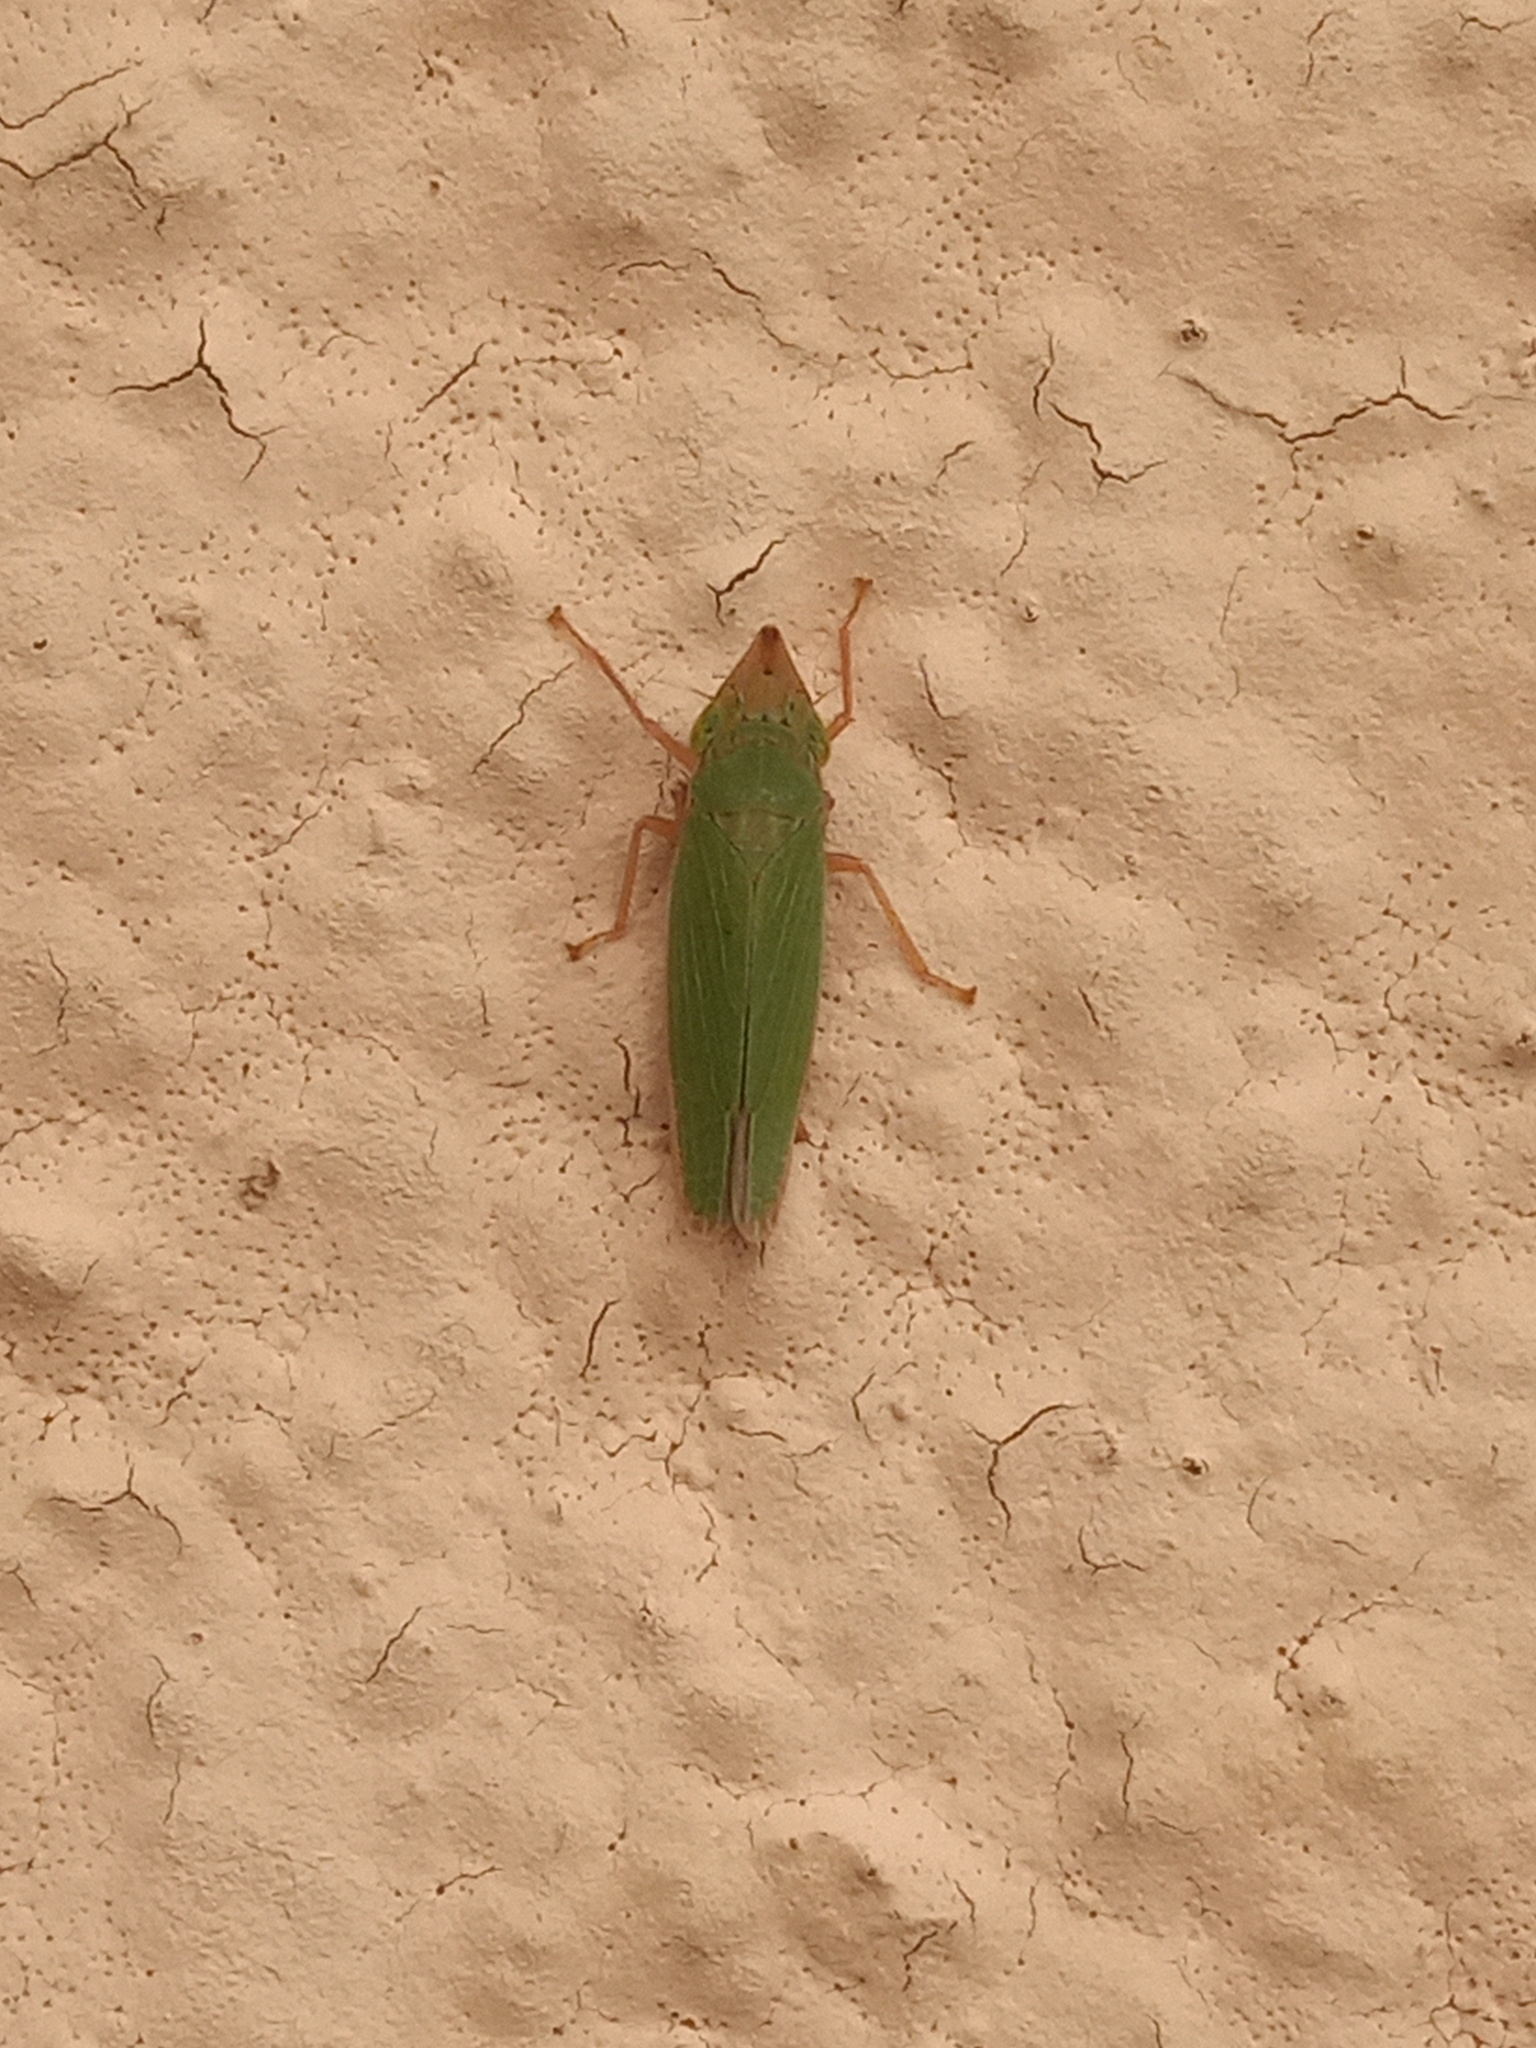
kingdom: Animalia
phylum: Arthropoda
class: Insecta
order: Hemiptera
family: Cicadellidae
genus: Draeculacephala
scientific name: Draeculacephala soluta
